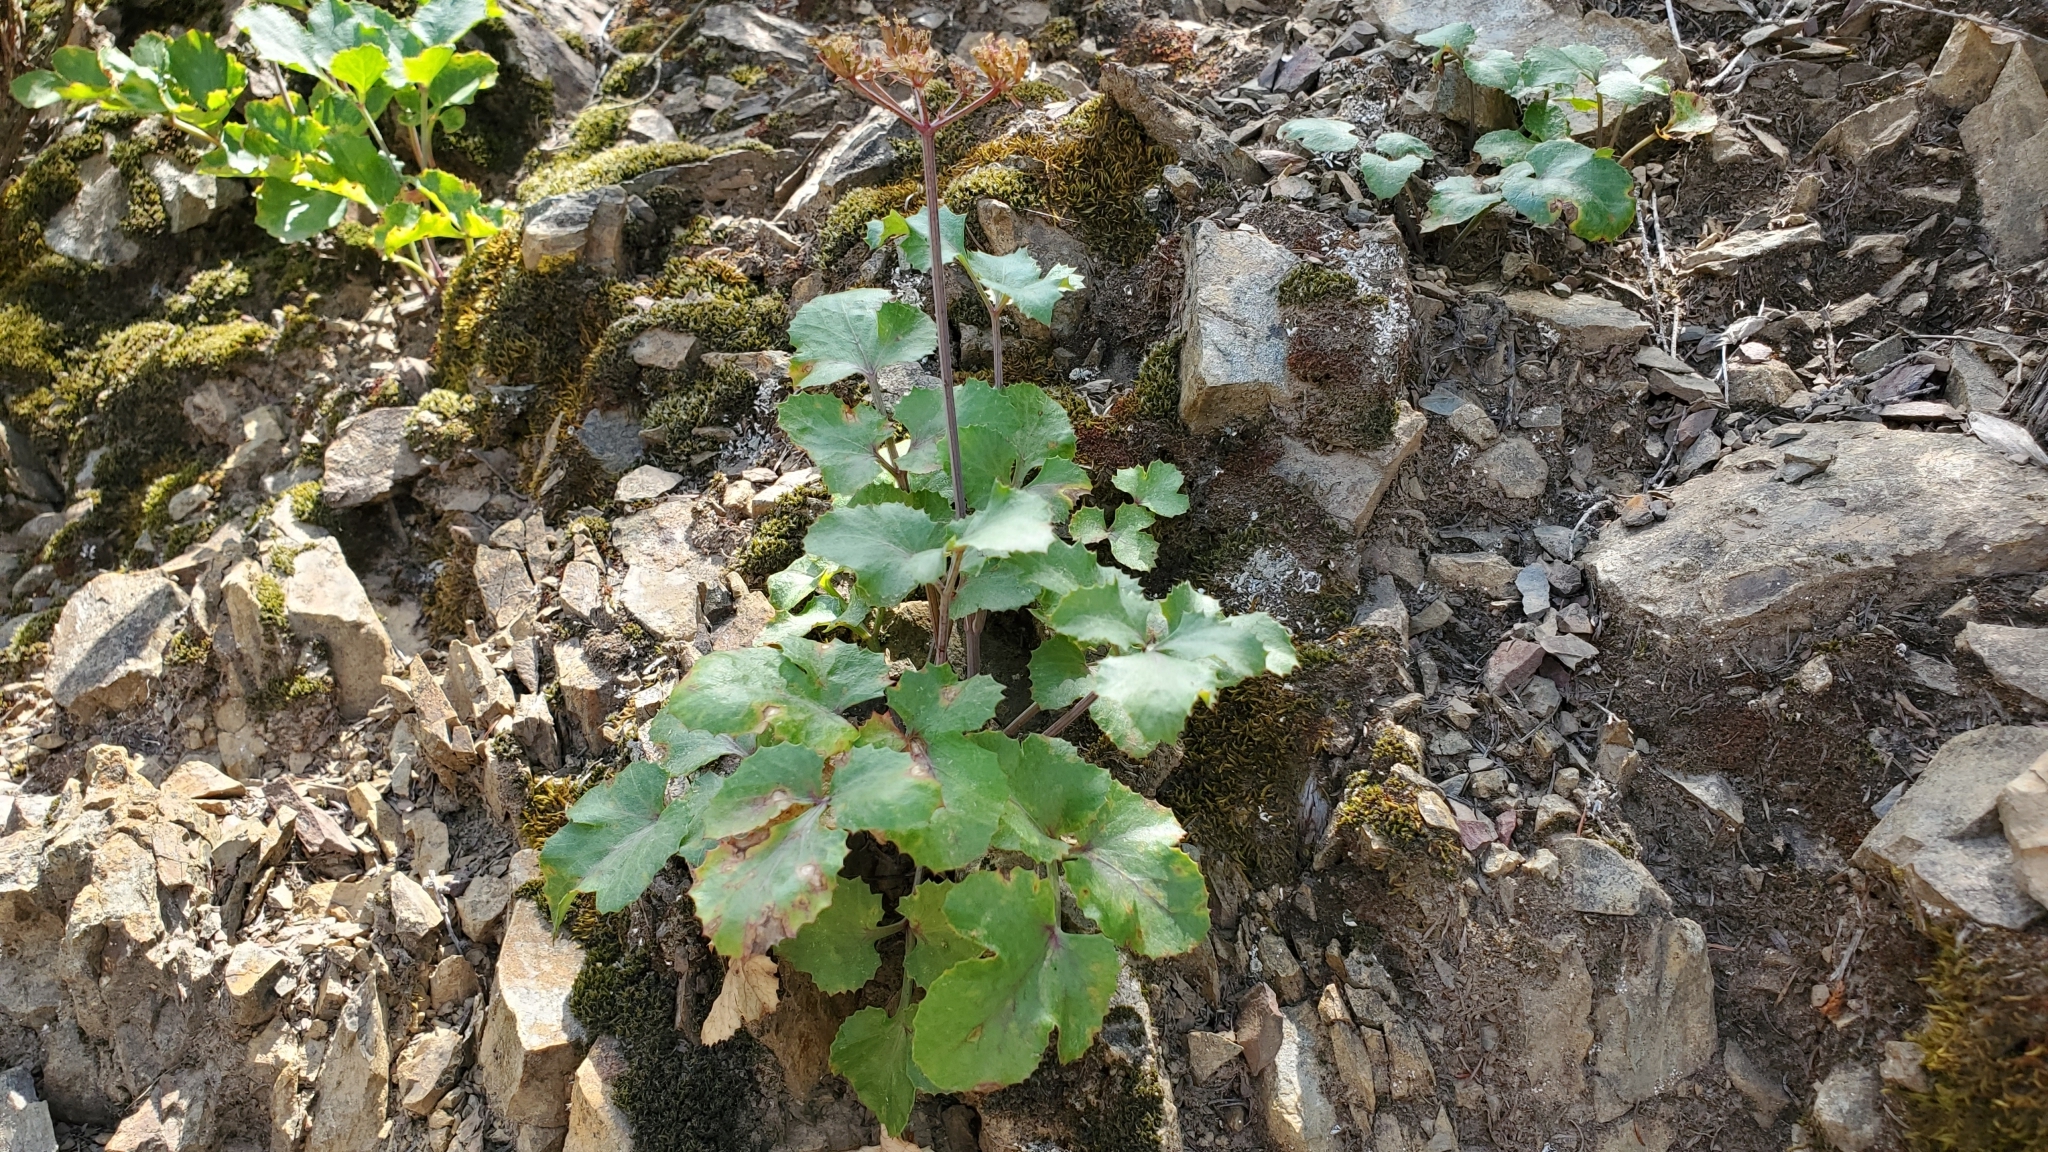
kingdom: Plantae
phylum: Tracheophyta
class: Magnoliopsida
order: Apiales
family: Apiaceae
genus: Lomatium
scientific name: Lomatium lucidum
